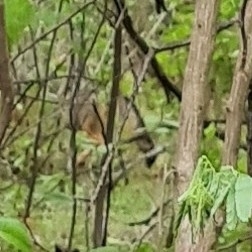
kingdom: Animalia
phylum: Chordata
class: Mammalia
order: Carnivora
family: Canidae
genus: Cerdocyon
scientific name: Cerdocyon thous
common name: Crab-eating fox
